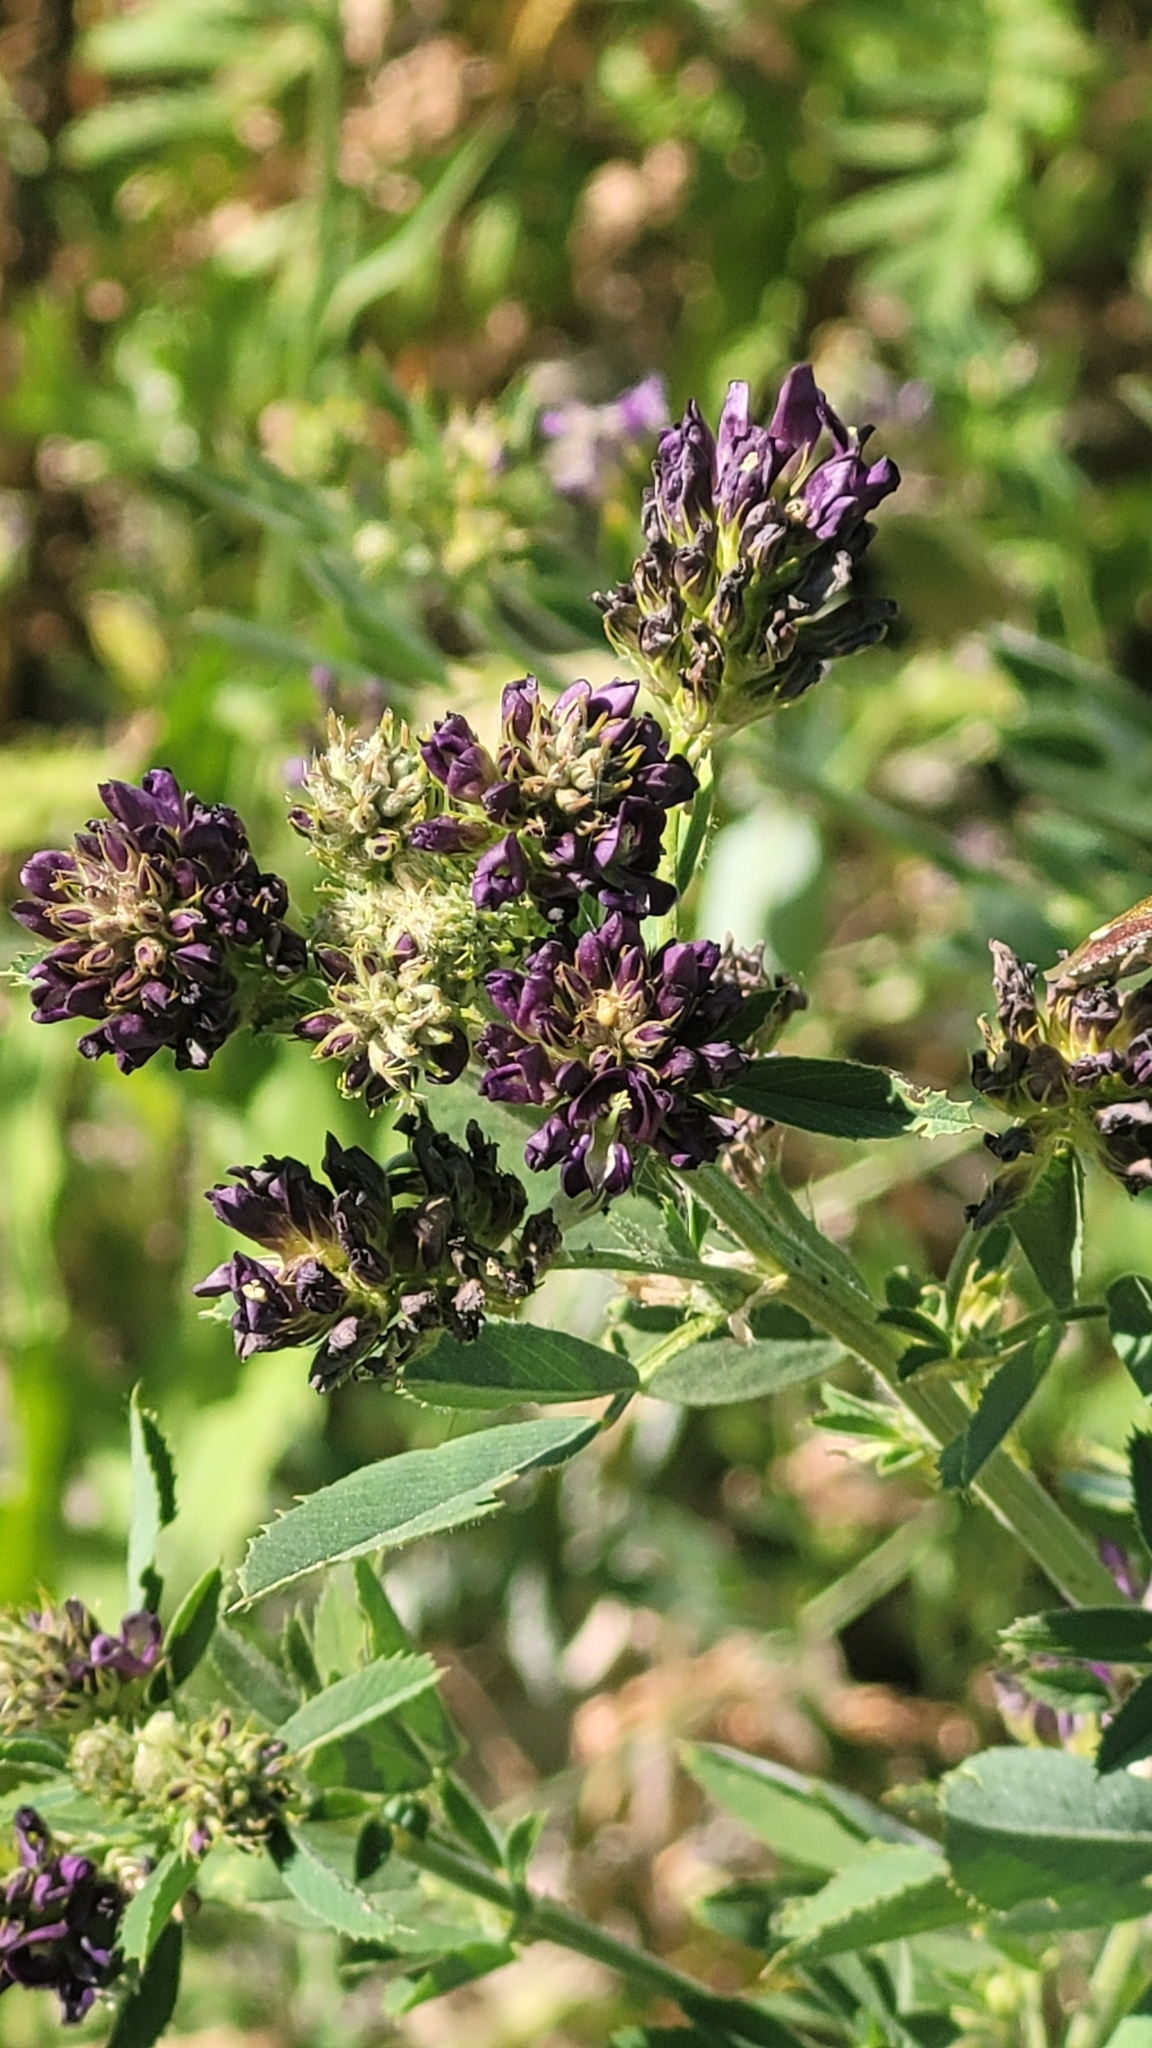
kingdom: Plantae
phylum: Tracheophyta
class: Magnoliopsida
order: Fabales
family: Fabaceae
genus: Medicago
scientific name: Medicago sativa
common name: Alfalfa
